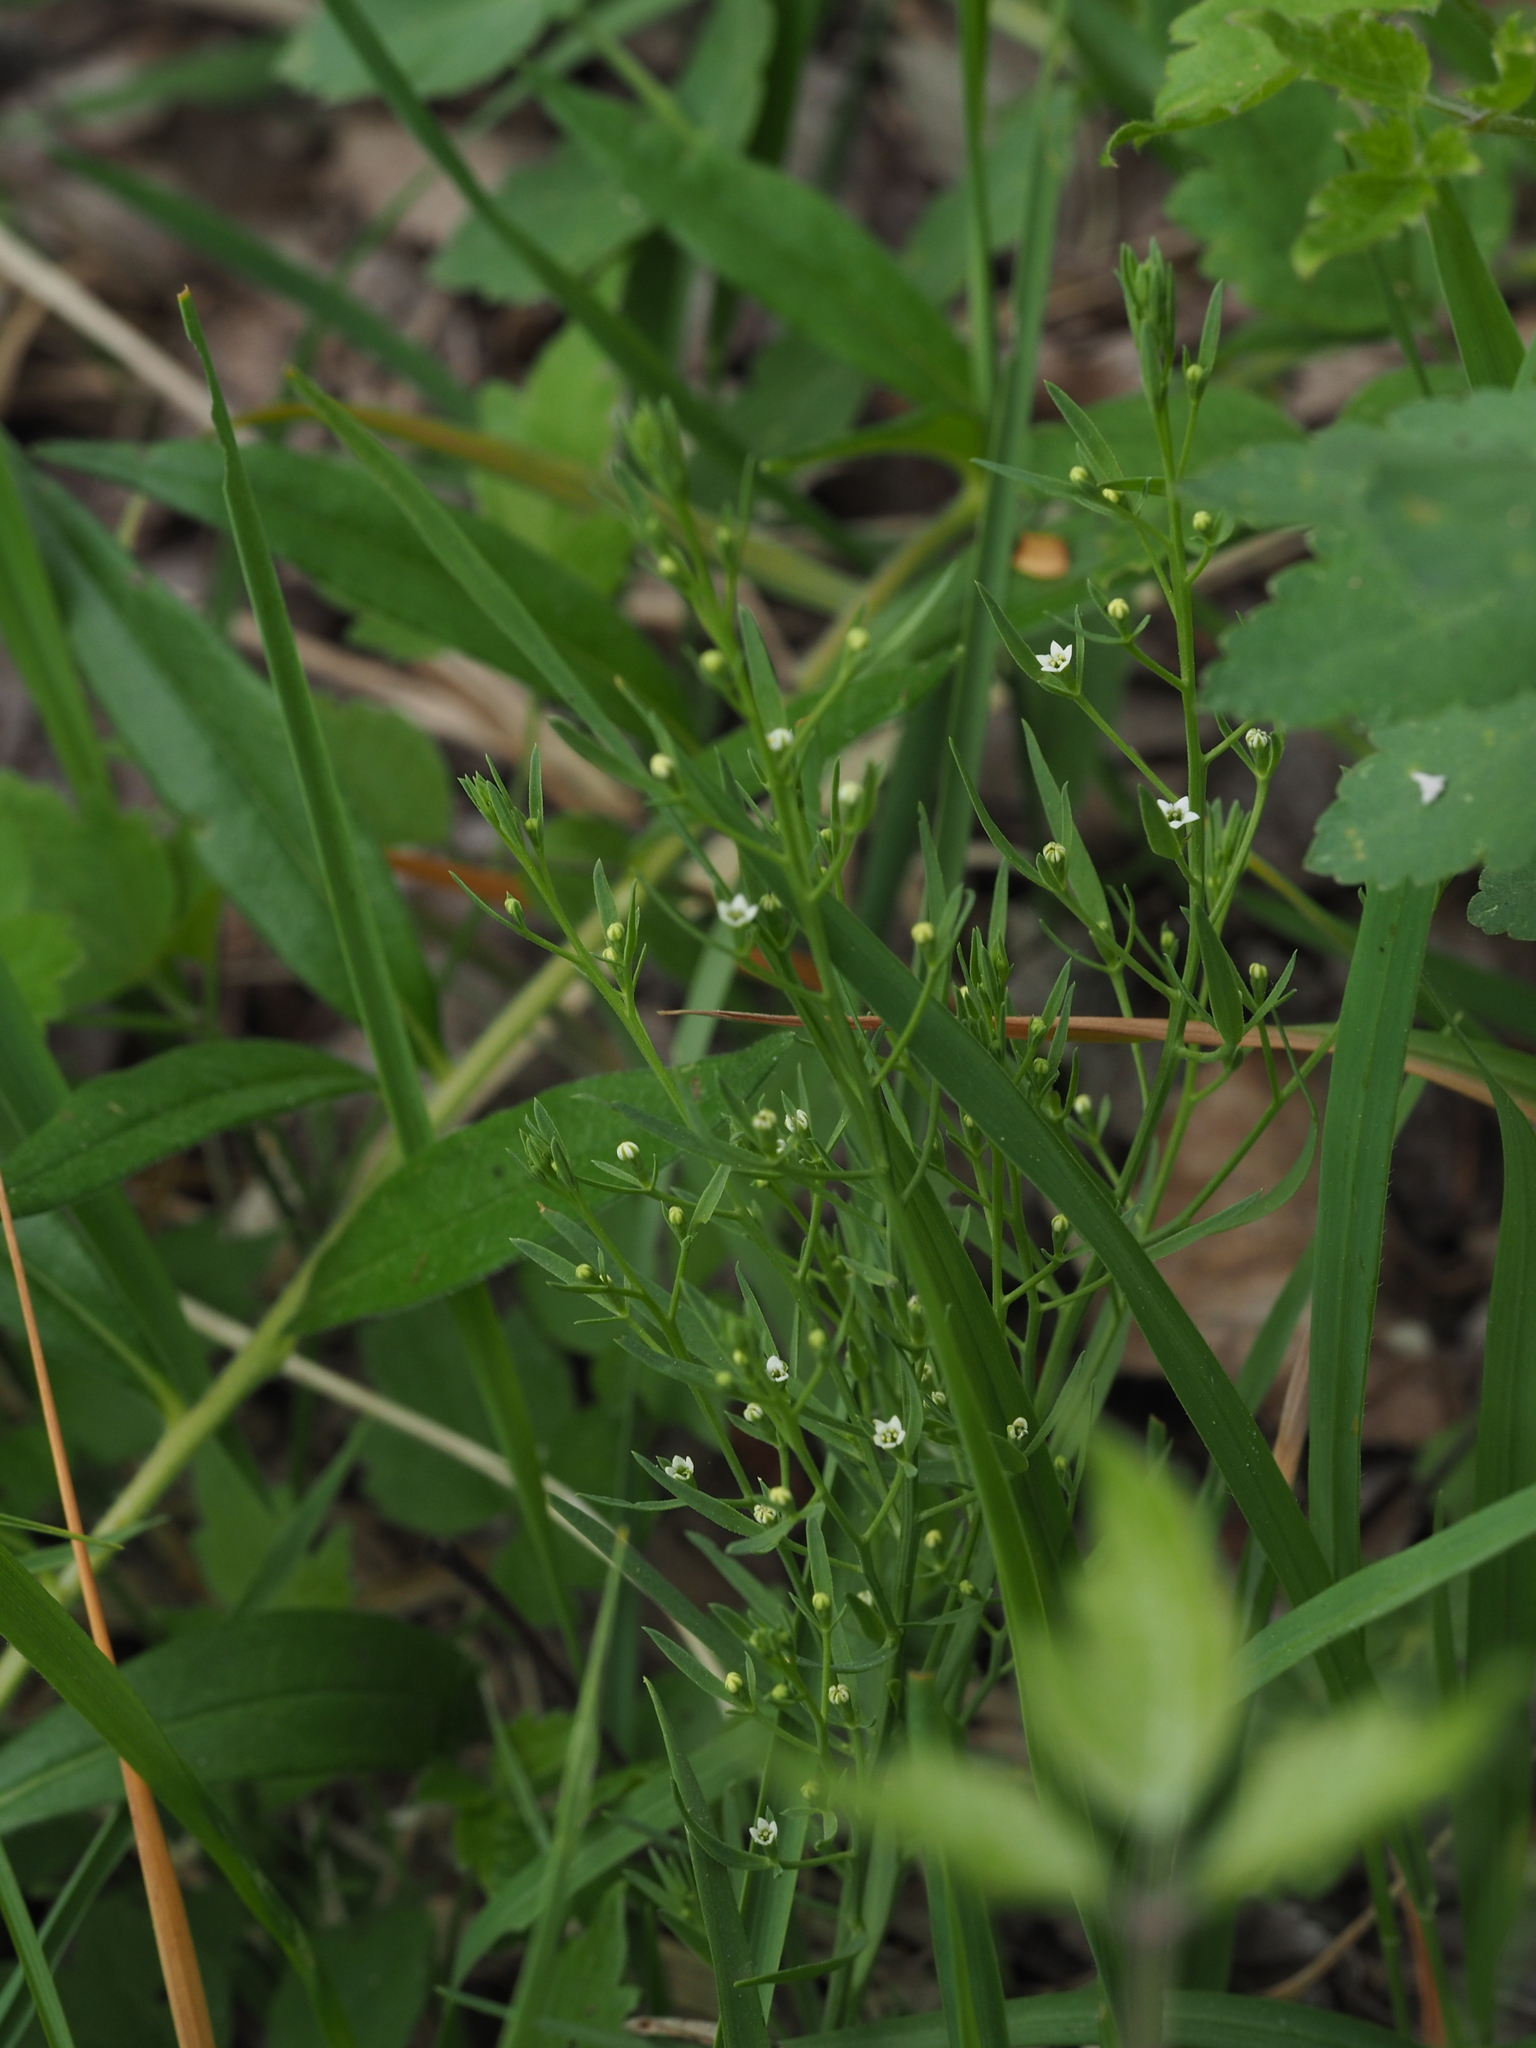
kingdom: Plantae
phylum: Tracheophyta
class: Magnoliopsida
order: Santalales
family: Thesiaceae
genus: Thesium
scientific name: Thesium ramosum
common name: Field thesium
